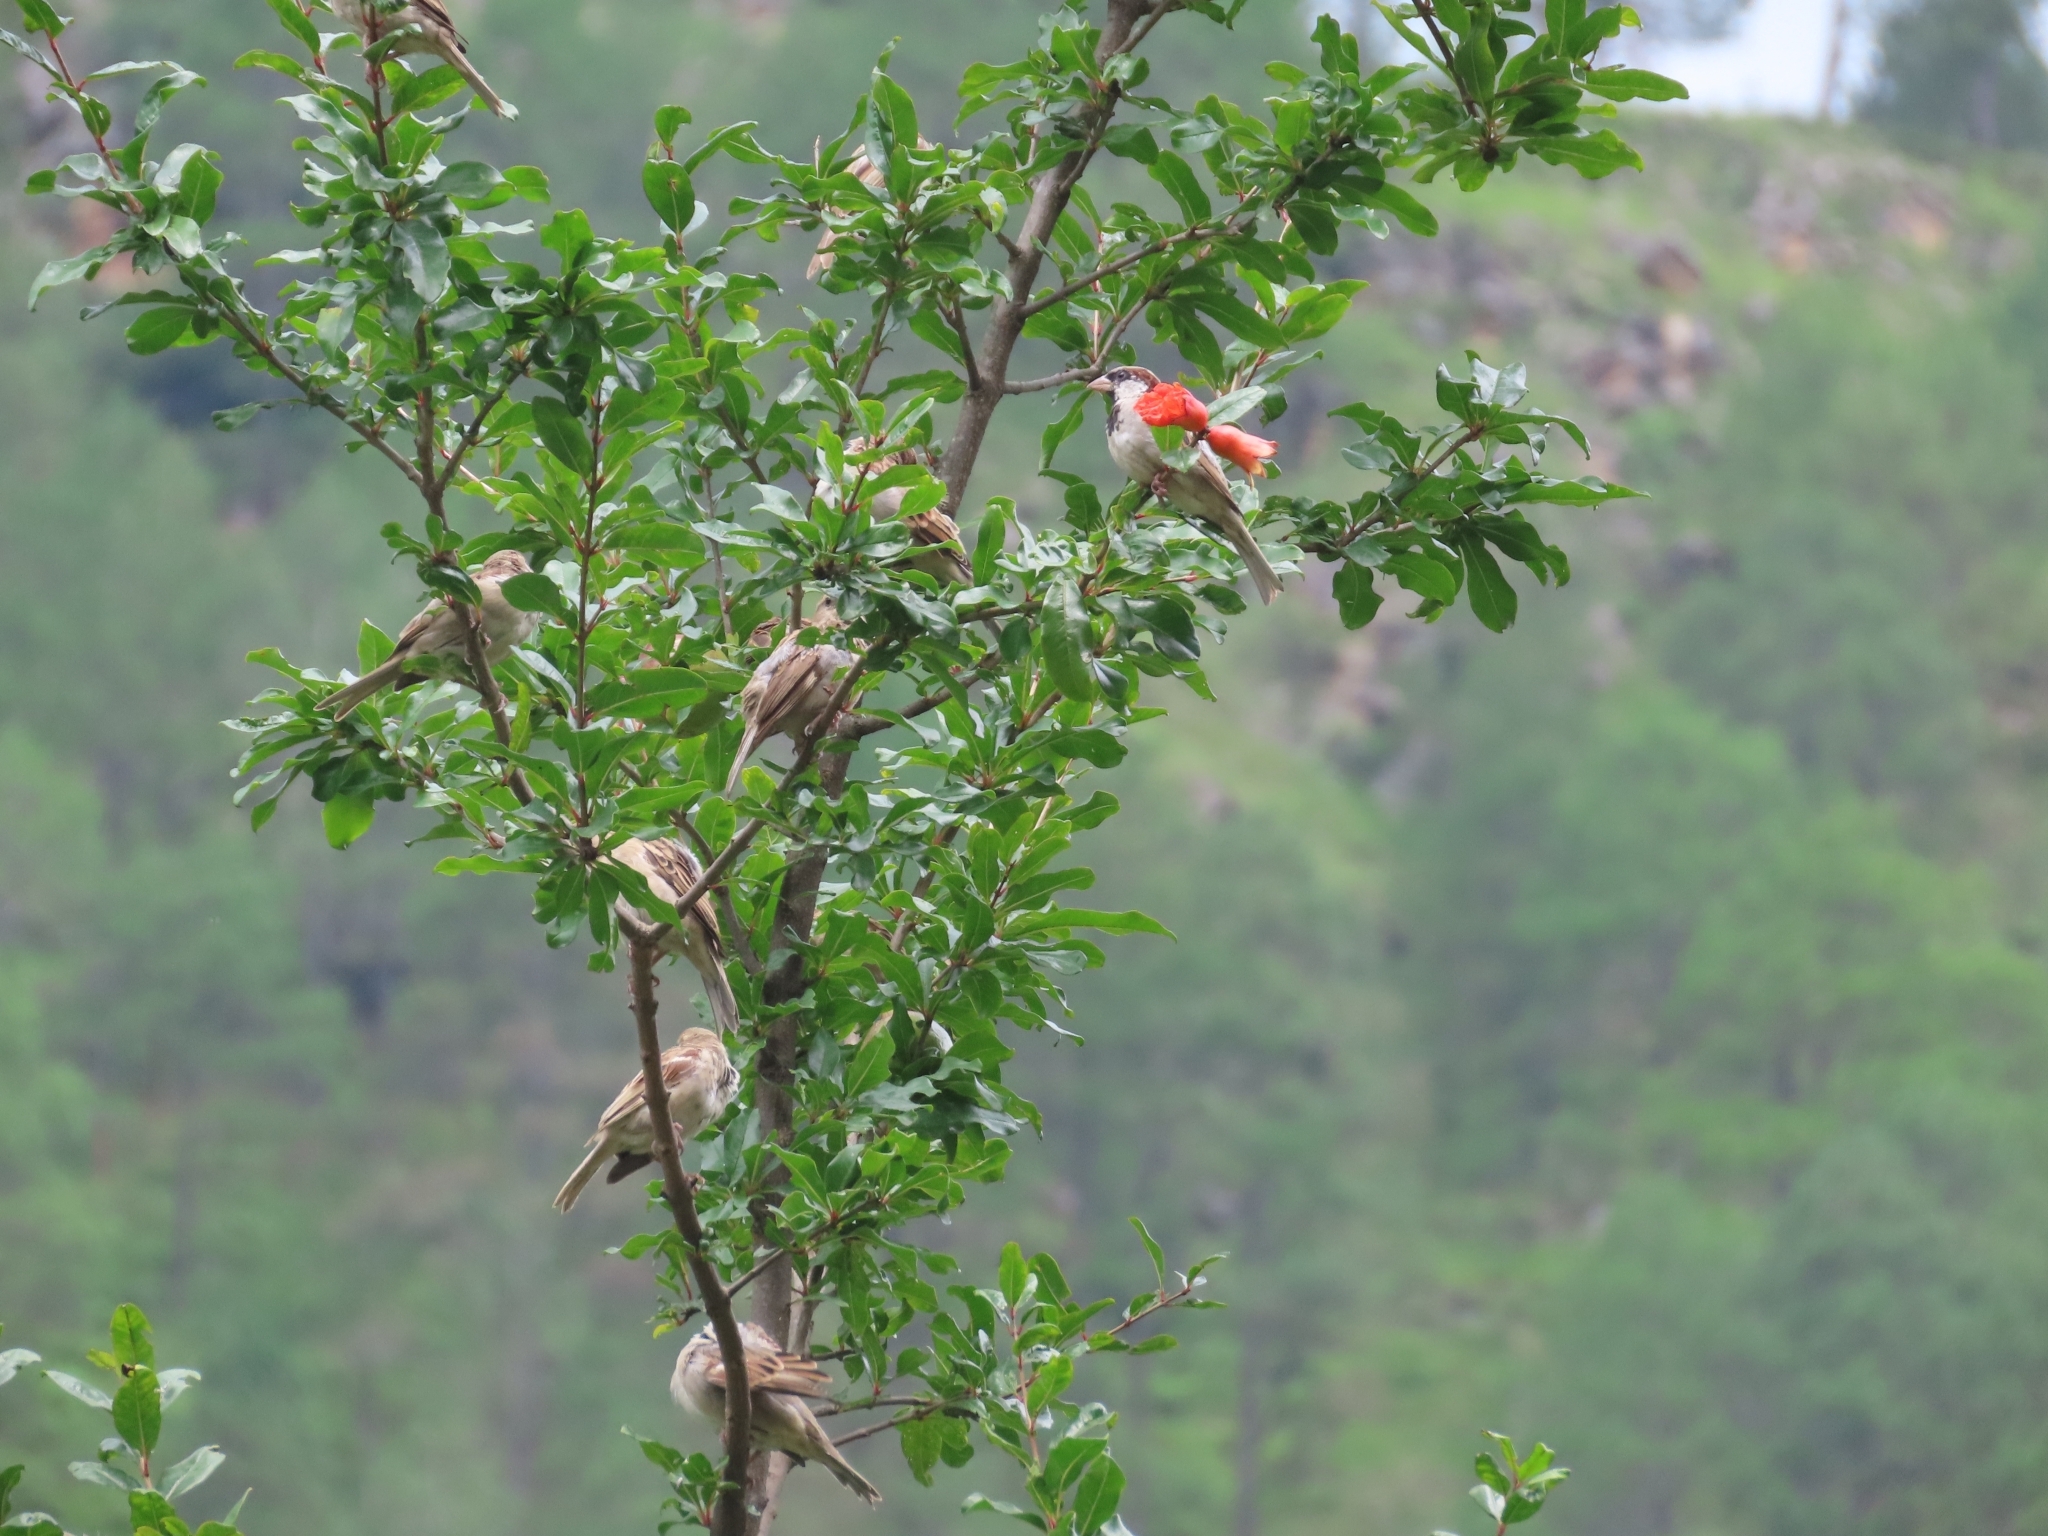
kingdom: Animalia
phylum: Chordata
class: Aves
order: Passeriformes
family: Passeridae
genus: Passer
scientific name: Passer domesticus
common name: House sparrow
